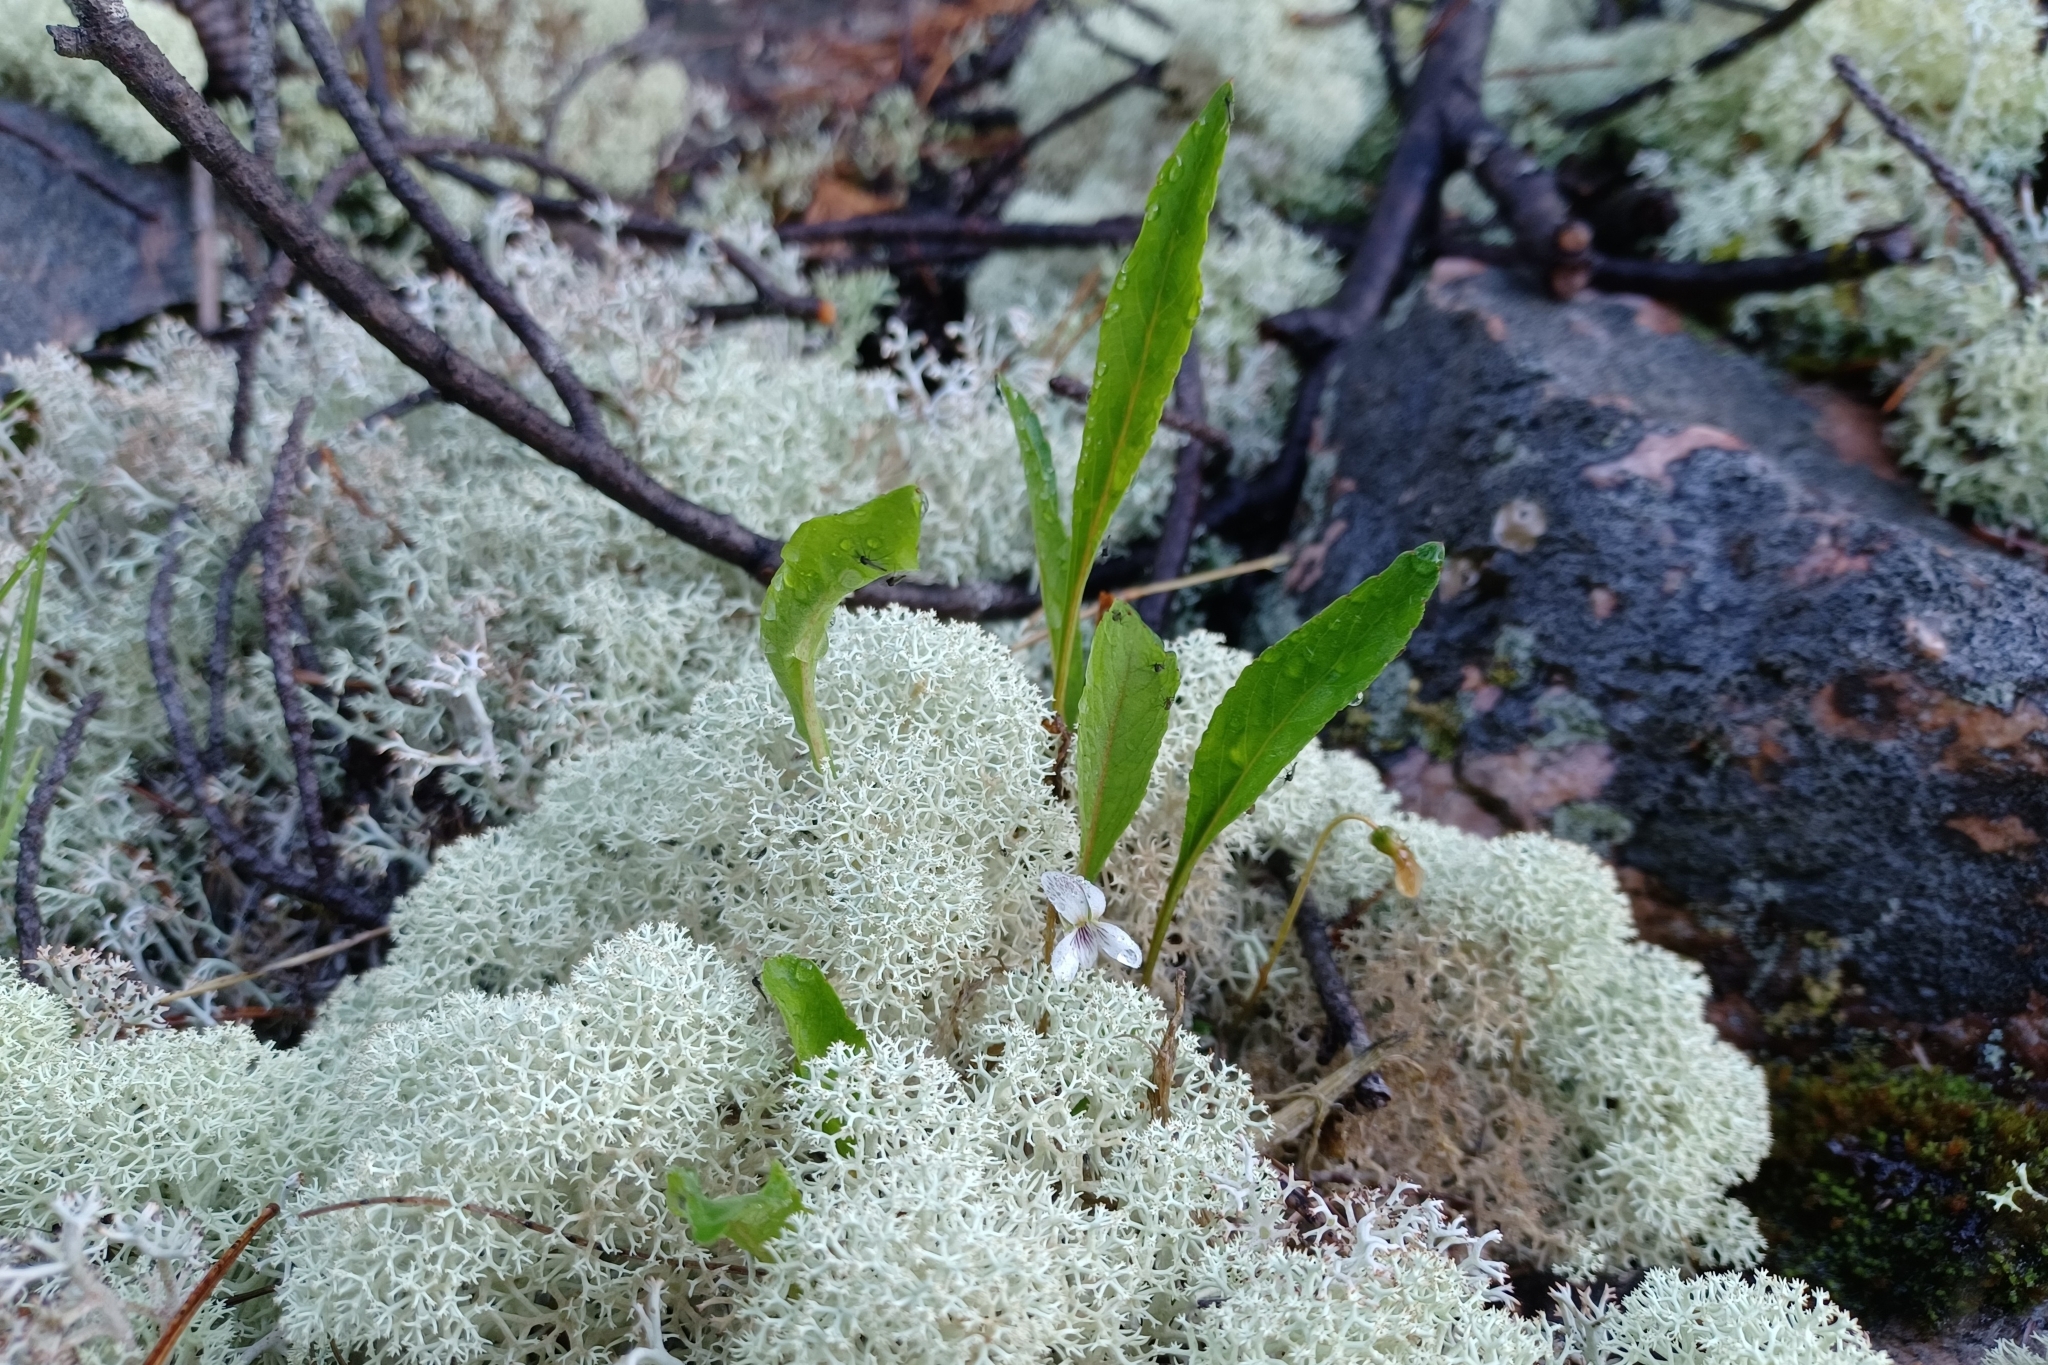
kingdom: Plantae
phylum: Tracheophyta
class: Magnoliopsida
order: Malpighiales
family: Violaceae
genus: Viola
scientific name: Viola lanceolata
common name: Bog white violet
